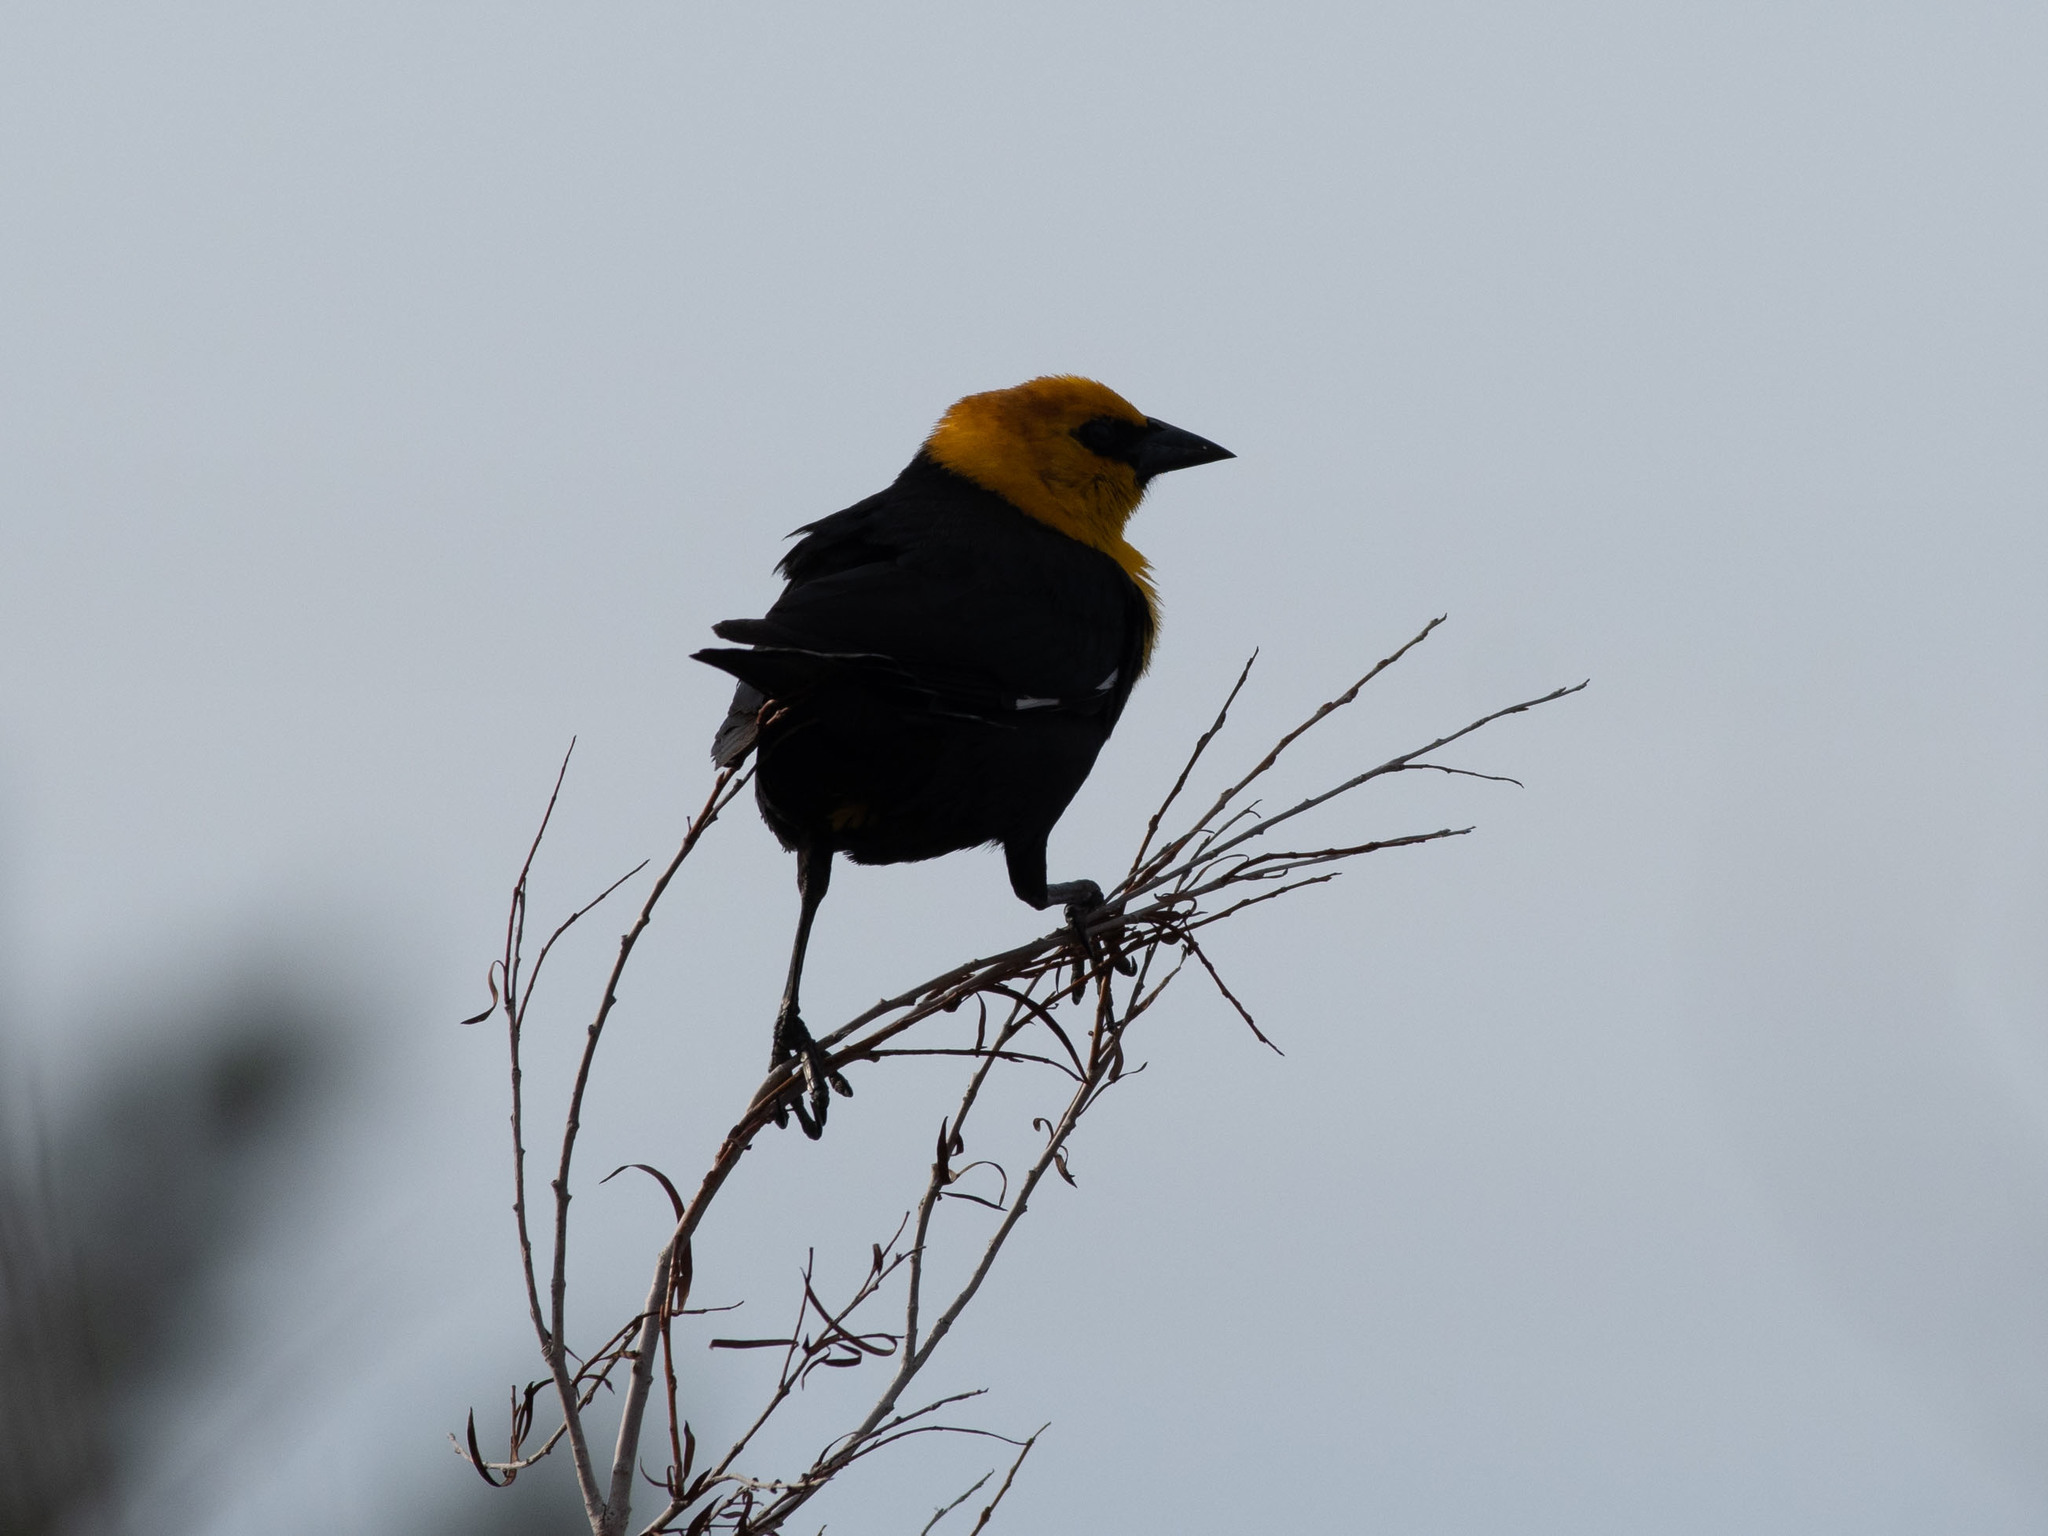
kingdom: Animalia
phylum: Chordata
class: Aves
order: Passeriformes
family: Icteridae
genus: Xanthocephalus
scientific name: Xanthocephalus xanthocephalus
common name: Yellow-headed blackbird
